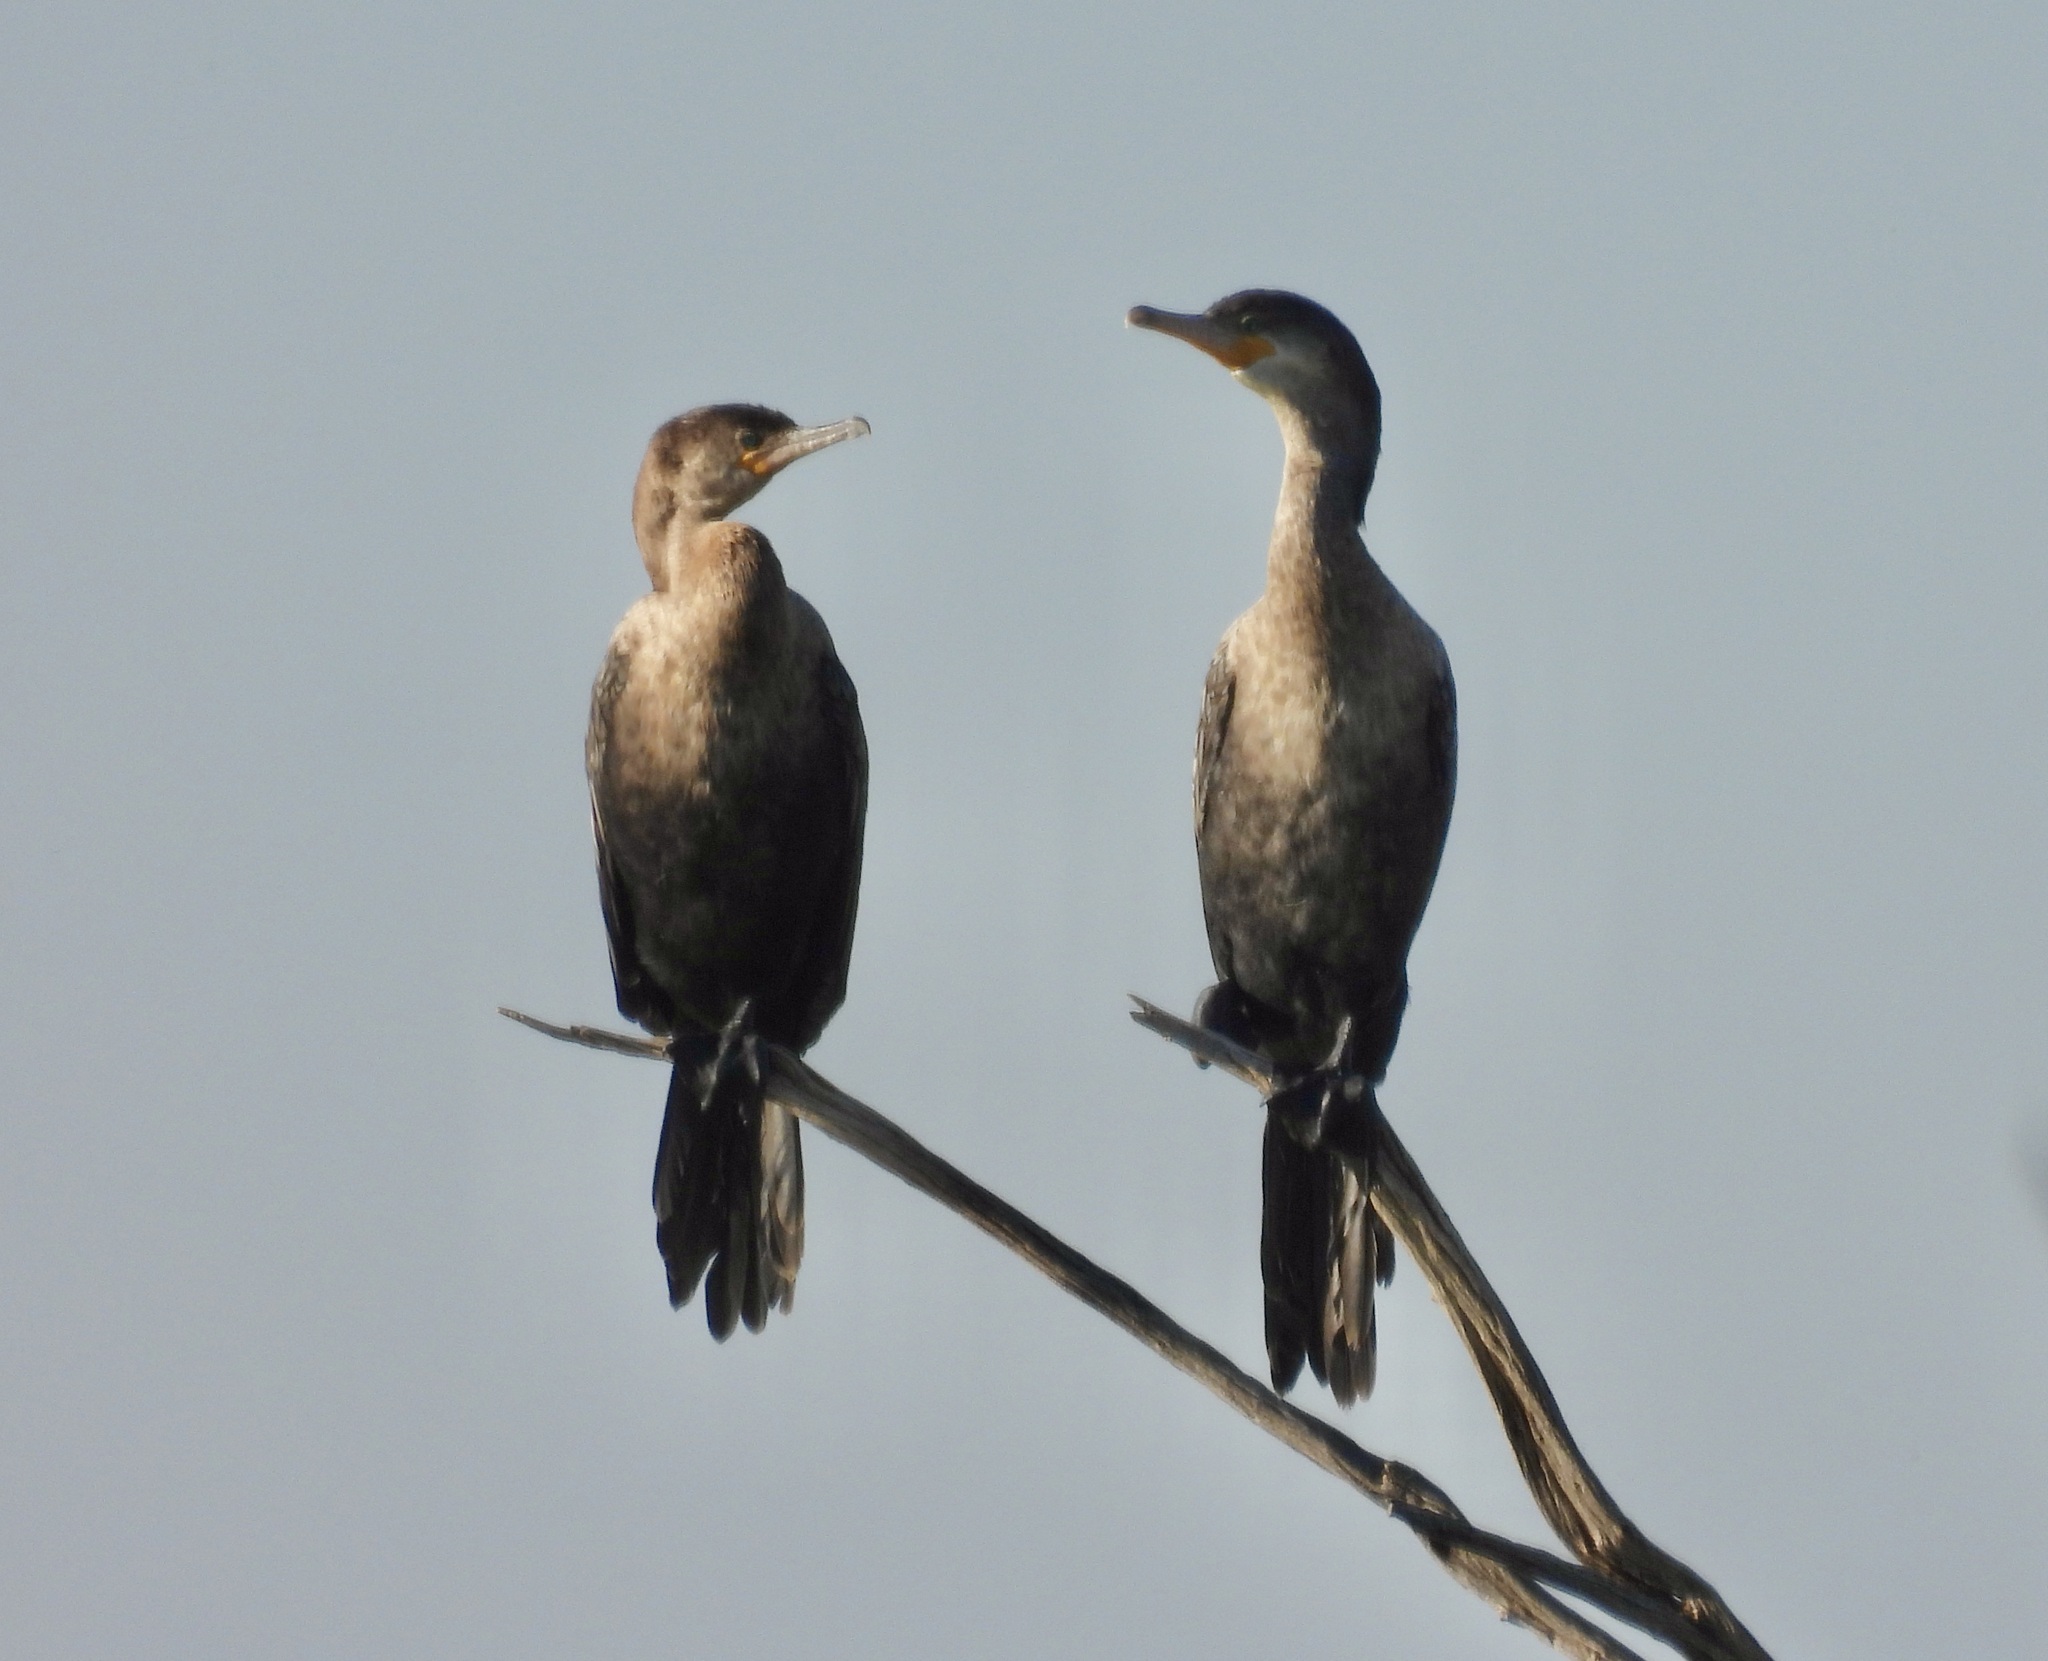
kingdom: Animalia
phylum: Chordata
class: Aves
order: Suliformes
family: Phalacrocoracidae
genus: Phalacrocorax
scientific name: Phalacrocorax brasilianus
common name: Neotropic cormorant
